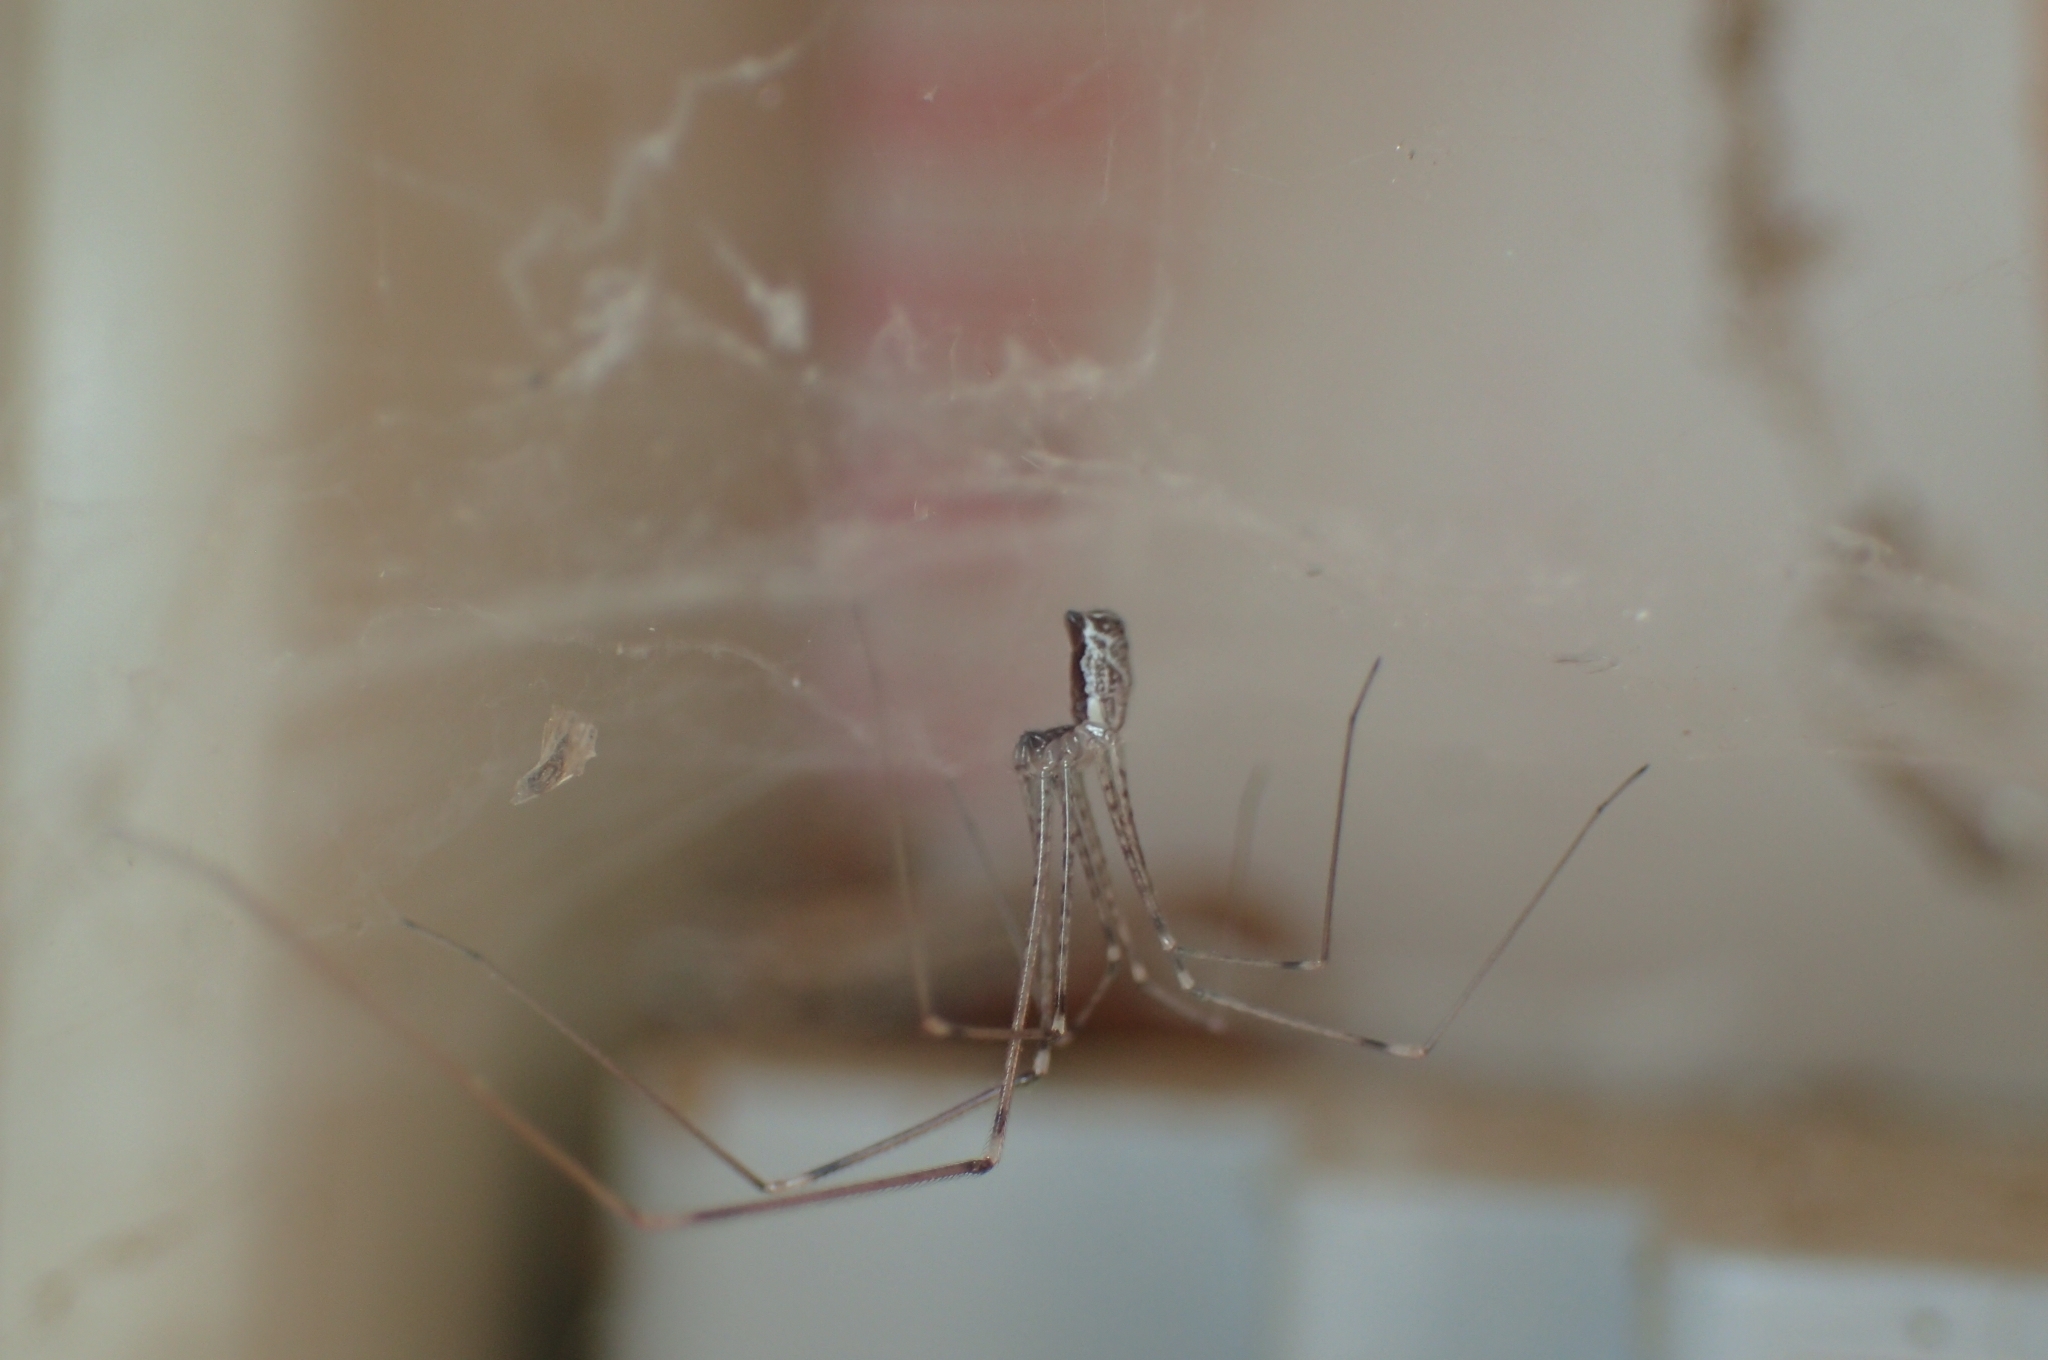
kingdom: Animalia
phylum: Arthropoda
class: Arachnida
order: Araneae
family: Pholcidae
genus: Holocnemus
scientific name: Holocnemus pluchei
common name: Marbled cellar spider
